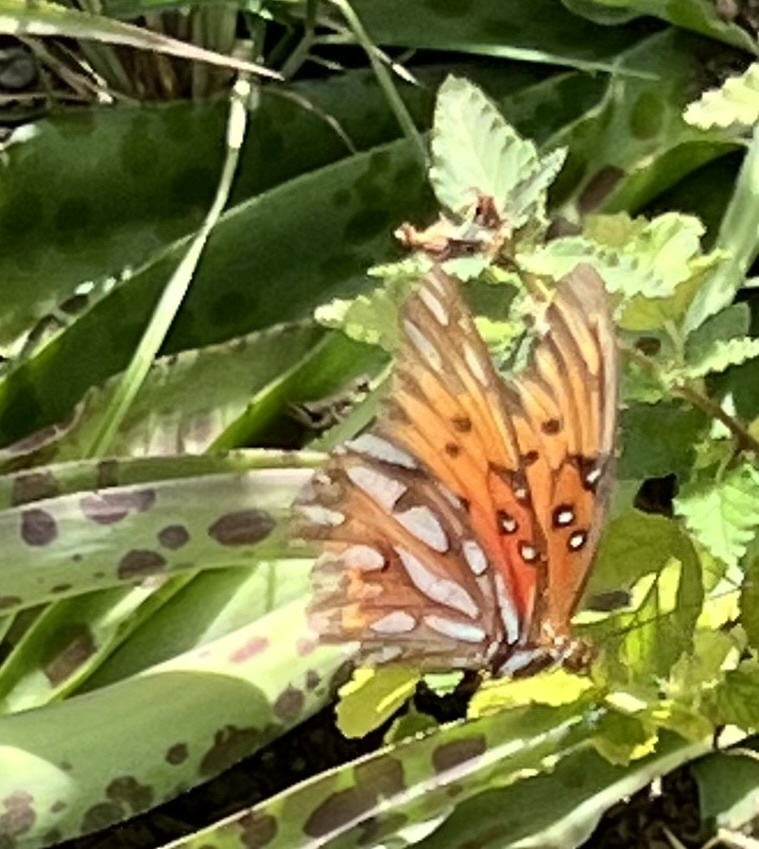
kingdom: Animalia
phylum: Arthropoda
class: Insecta
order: Lepidoptera
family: Nymphalidae
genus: Dione
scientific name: Dione vanillae
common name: Gulf fritillary
